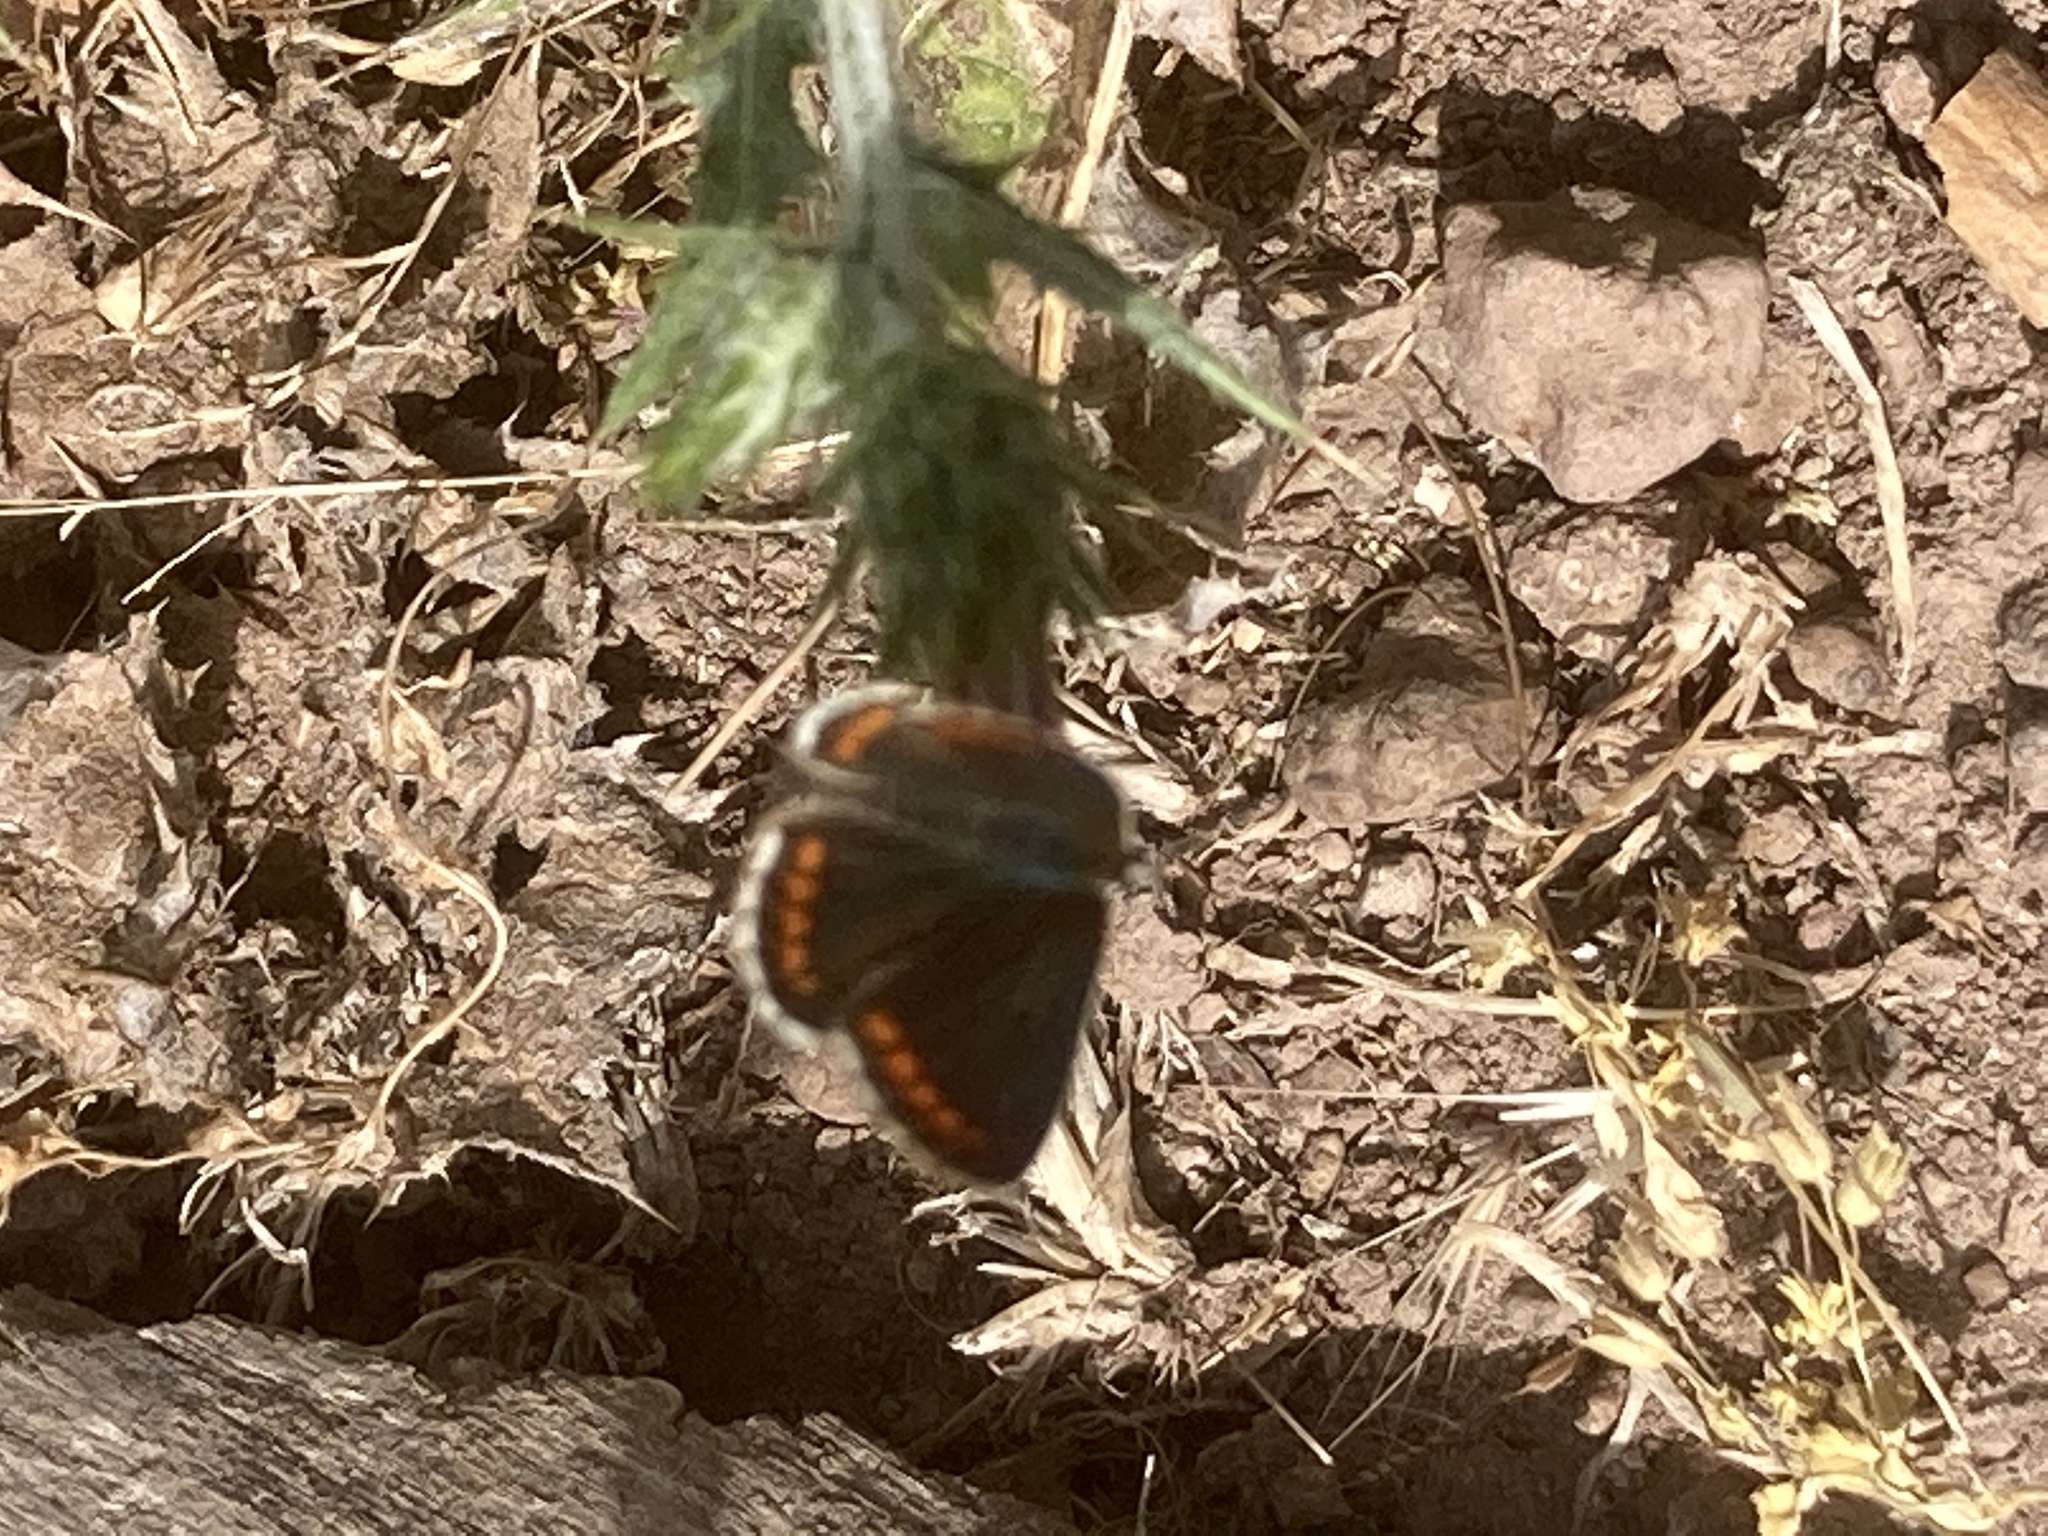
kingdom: Animalia
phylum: Arthropoda
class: Insecta
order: Lepidoptera
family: Lycaenidae
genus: Aricia
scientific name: Aricia agestis
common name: Brown argus
